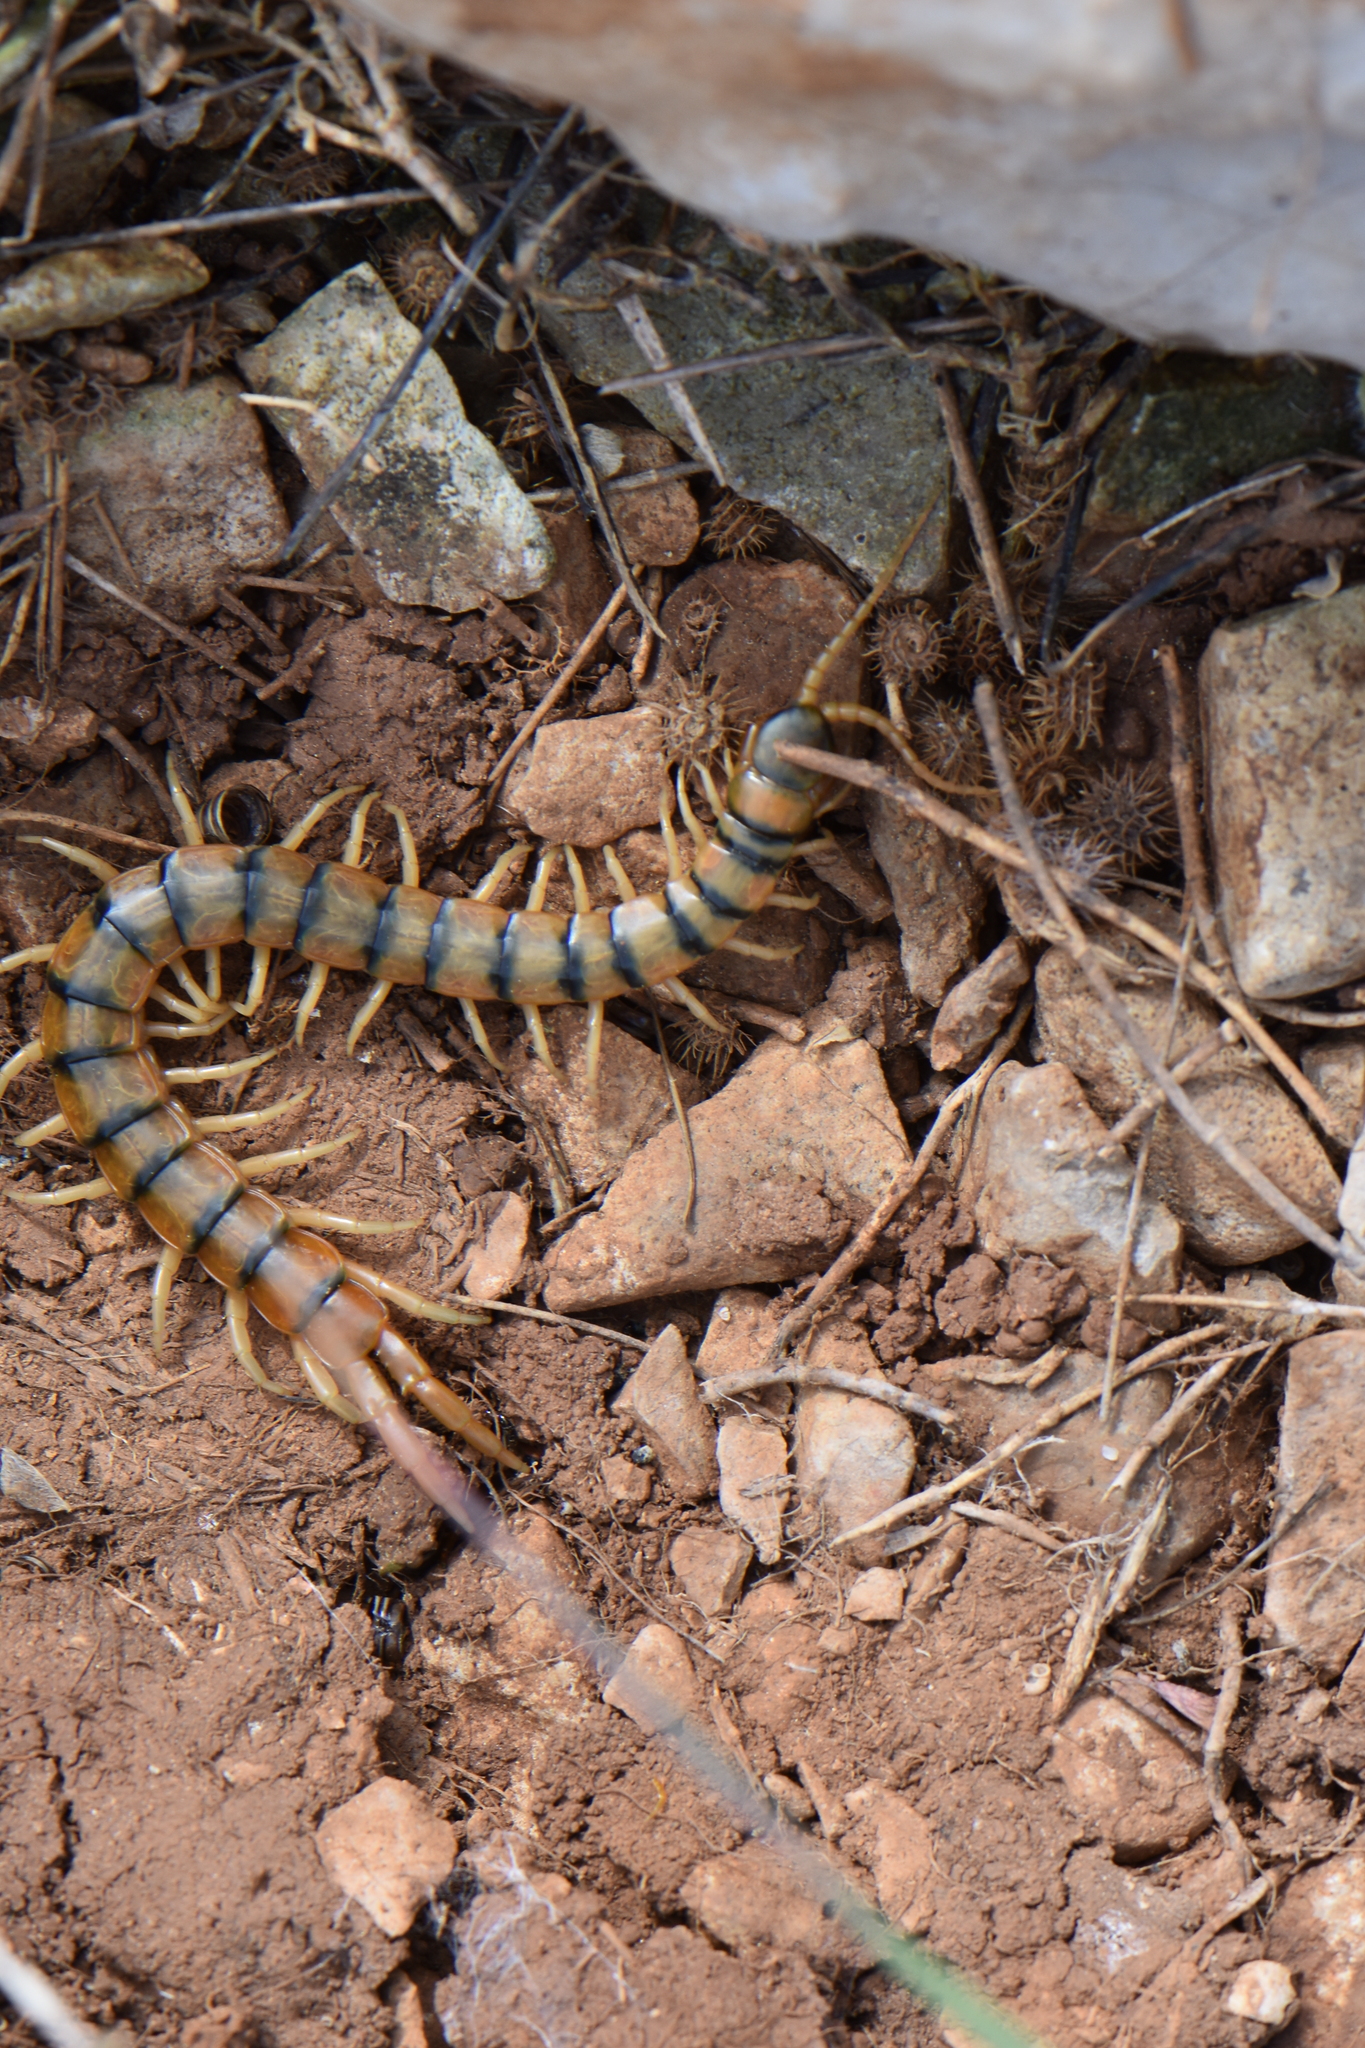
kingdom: Animalia
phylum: Arthropoda
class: Chilopoda
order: Scolopendromorpha
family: Scolopendridae
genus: Scolopendra
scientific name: Scolopendra cingulata
